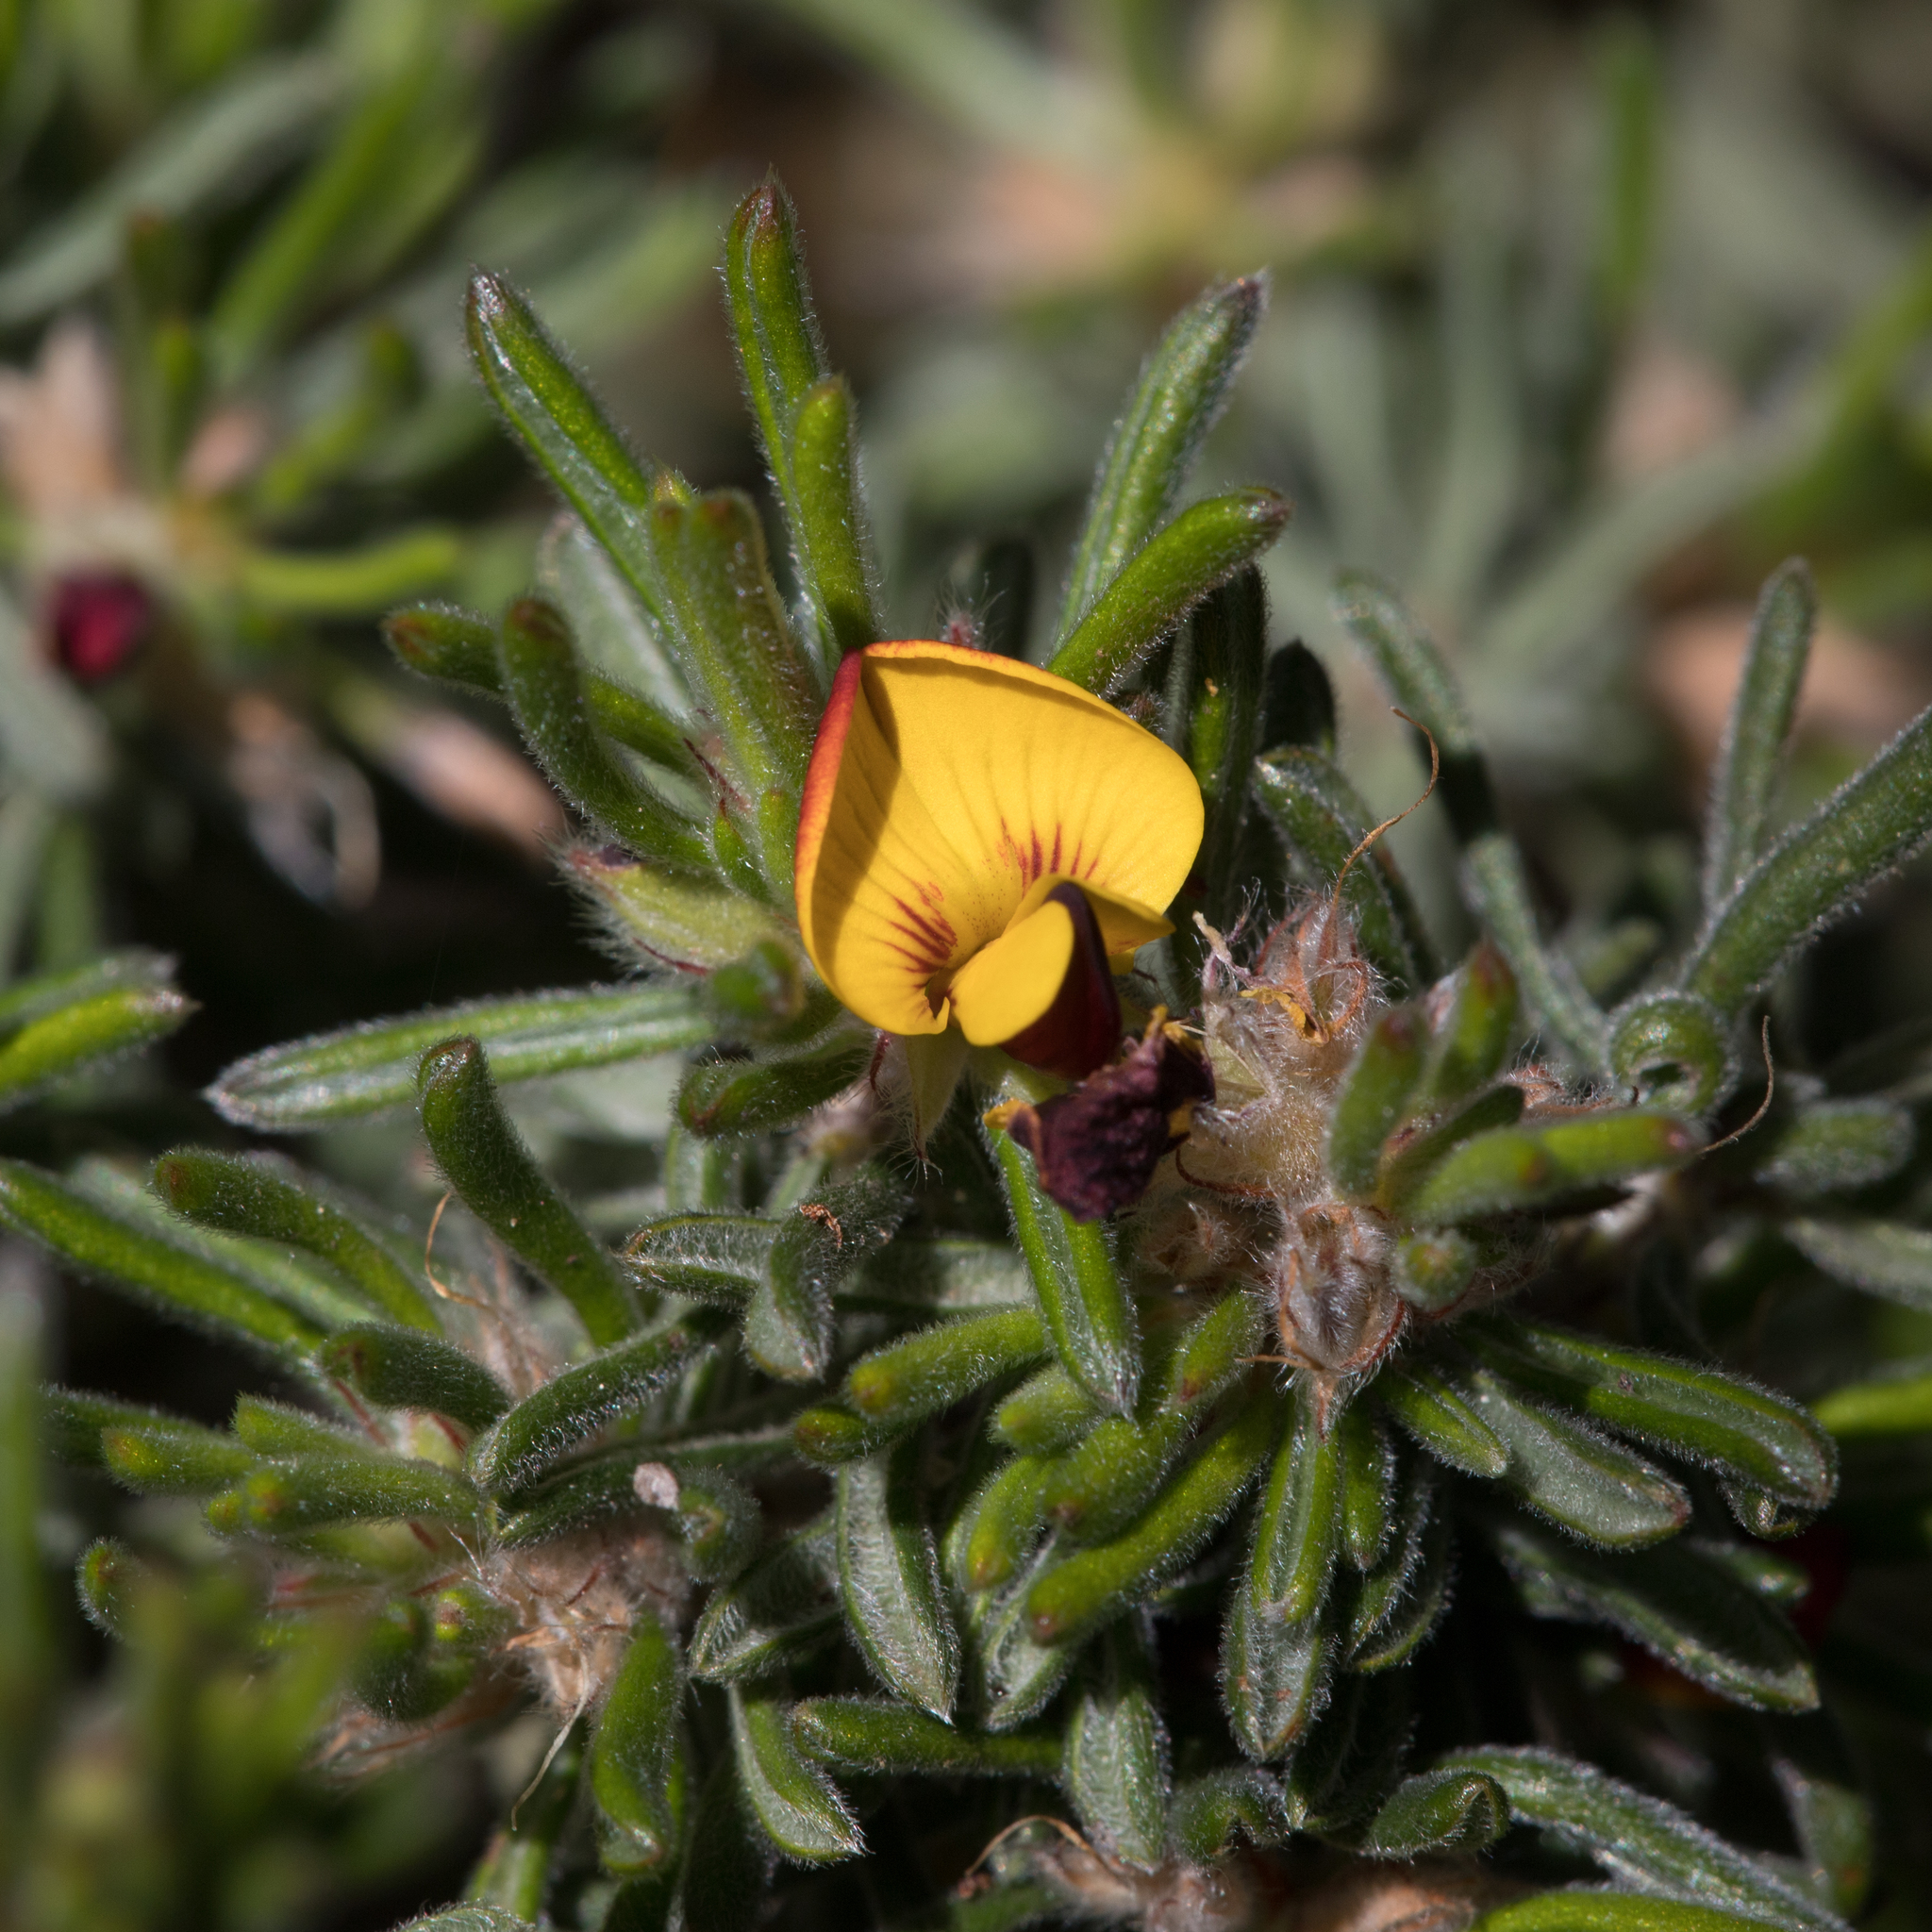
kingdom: Plantae
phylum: Tracheophyta
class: Magnoliopsida
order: Fabales
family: Fabaceae
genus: Pultenaea
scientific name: Pultenaea canaliculata
